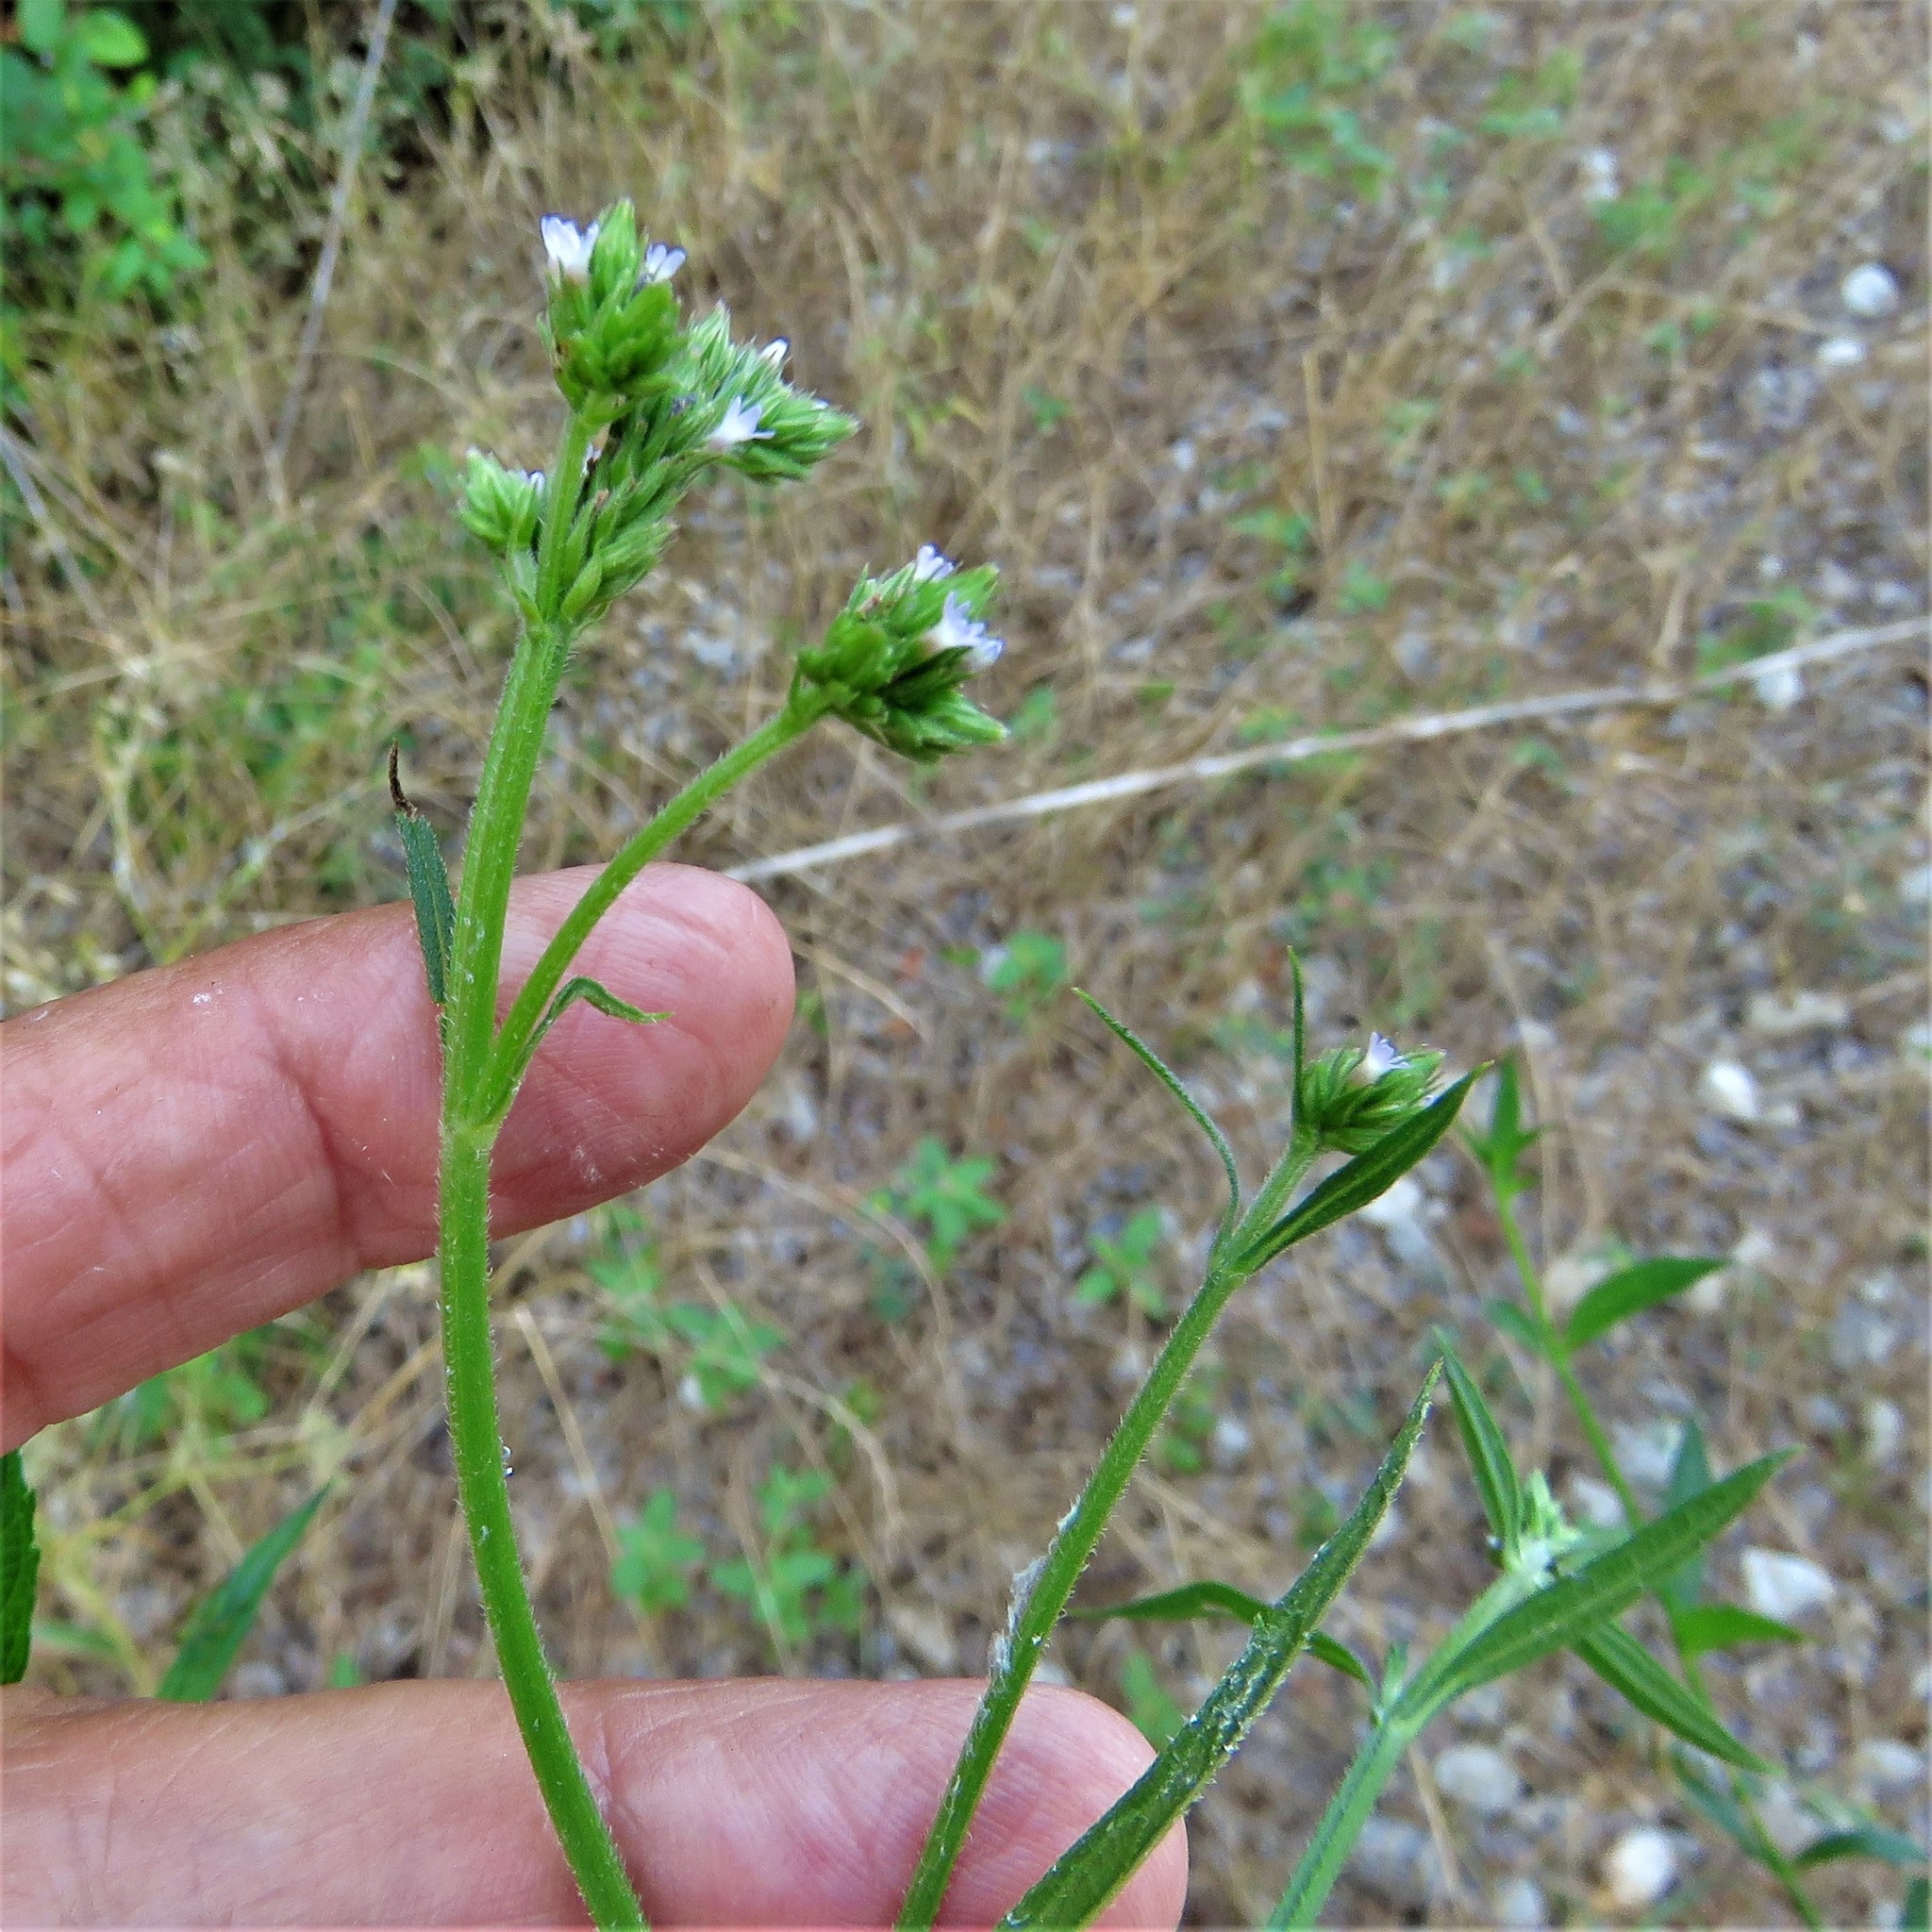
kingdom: Plantae
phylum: Tracheophyta
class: Magnoliopsida
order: Lamiales
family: Verbenaceae
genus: Verbena
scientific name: Verbena brasiliensis
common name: Brazilian vervain
